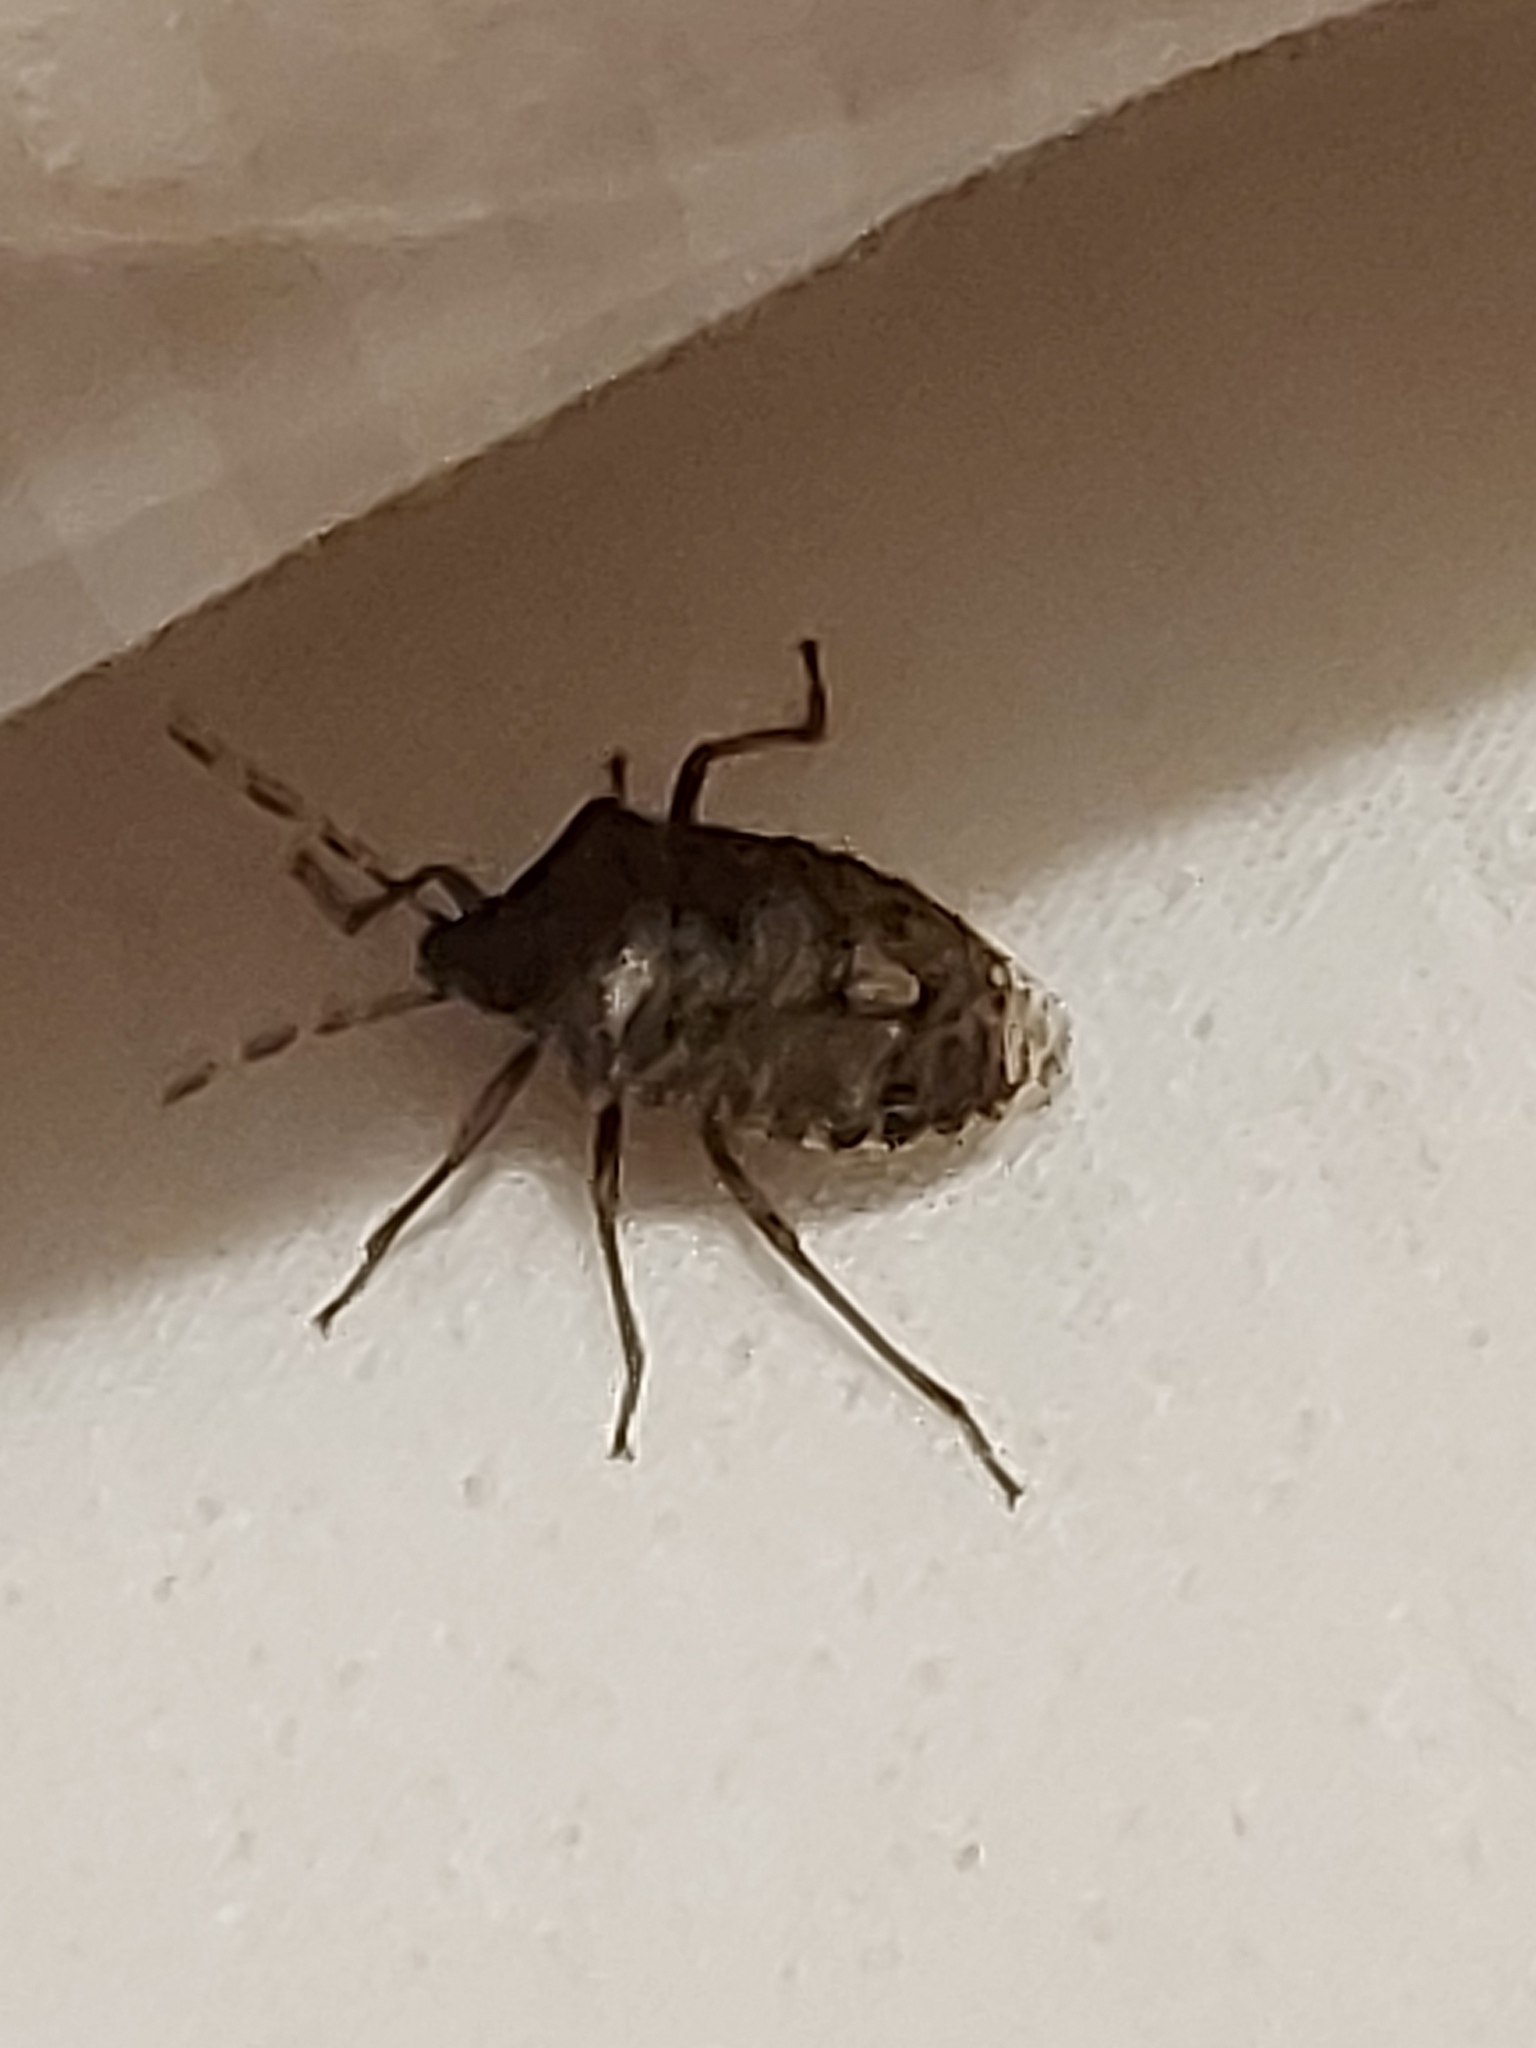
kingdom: Animalia
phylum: Arthropoda
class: Insecta
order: Hemiptera
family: Pentatomidae
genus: Rhaphigaster
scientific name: Rhaphigaster nebulosa
